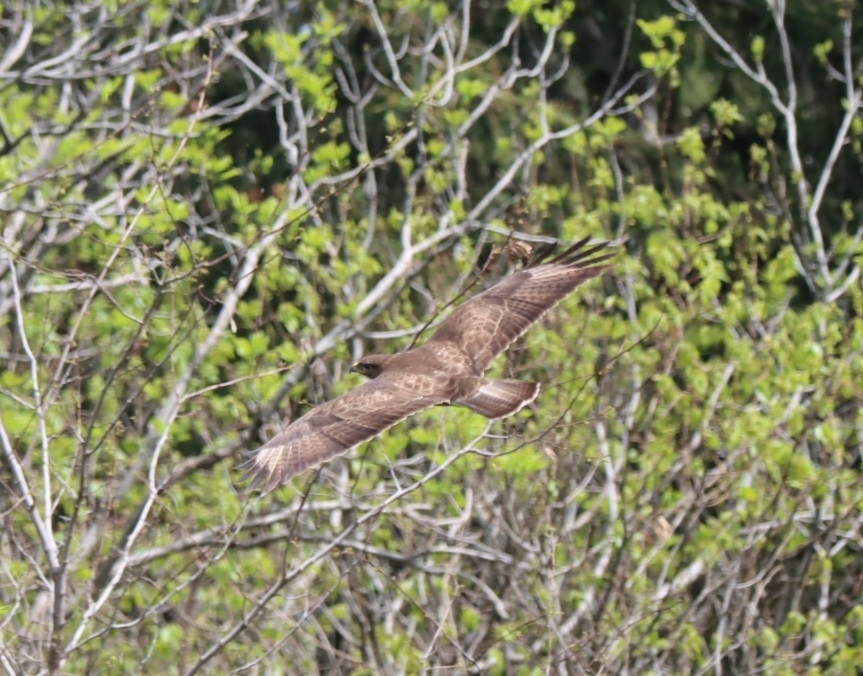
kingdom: Animalia
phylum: Chordata
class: Aves
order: Accipitriformes
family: Accipitridae
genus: Buteo
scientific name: Buteo buteo
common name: Common buzzard
